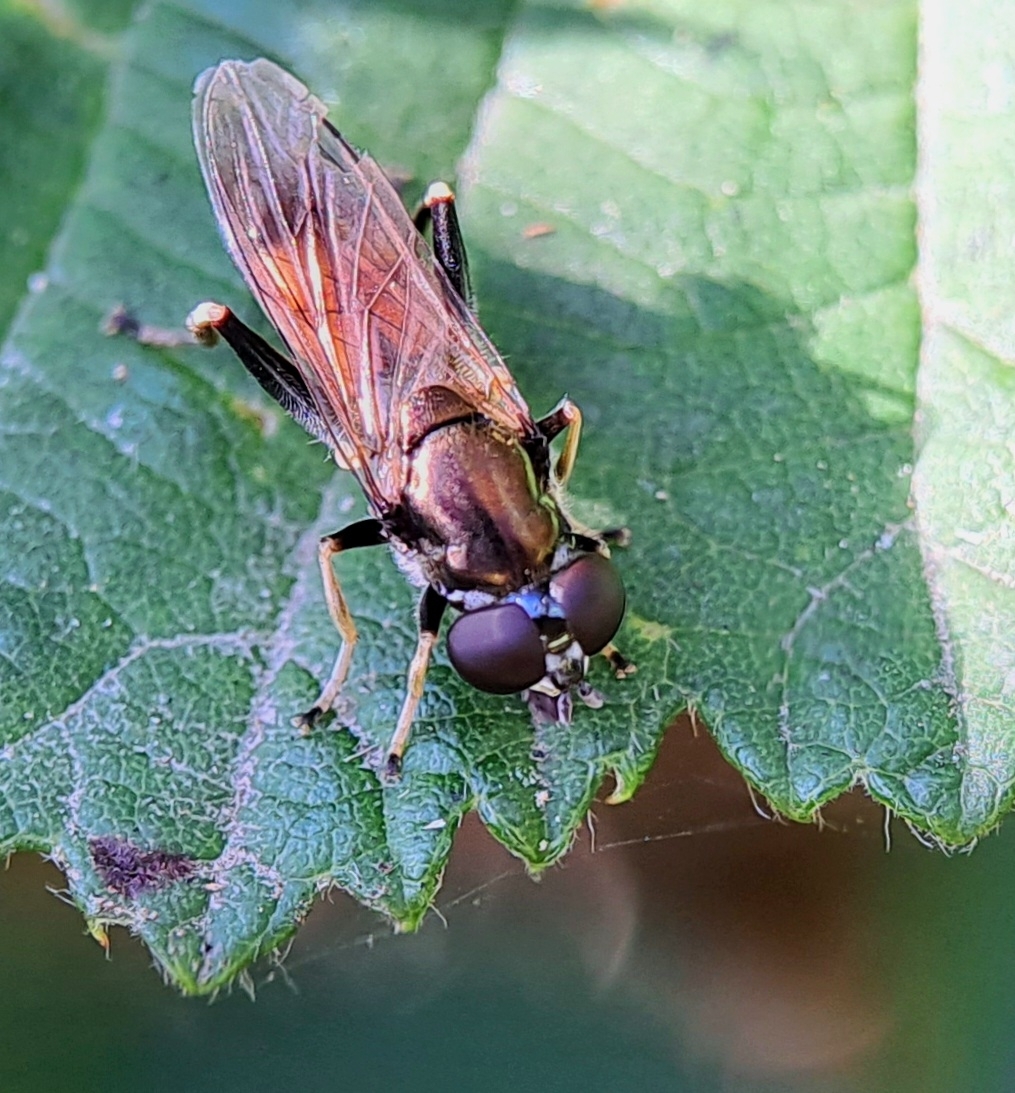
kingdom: Animalia
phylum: Arthropoda
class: Insecta
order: Diptera
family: Syrphidae
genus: Xylota
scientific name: Xylota segnis
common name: Brown-toed forest fly
